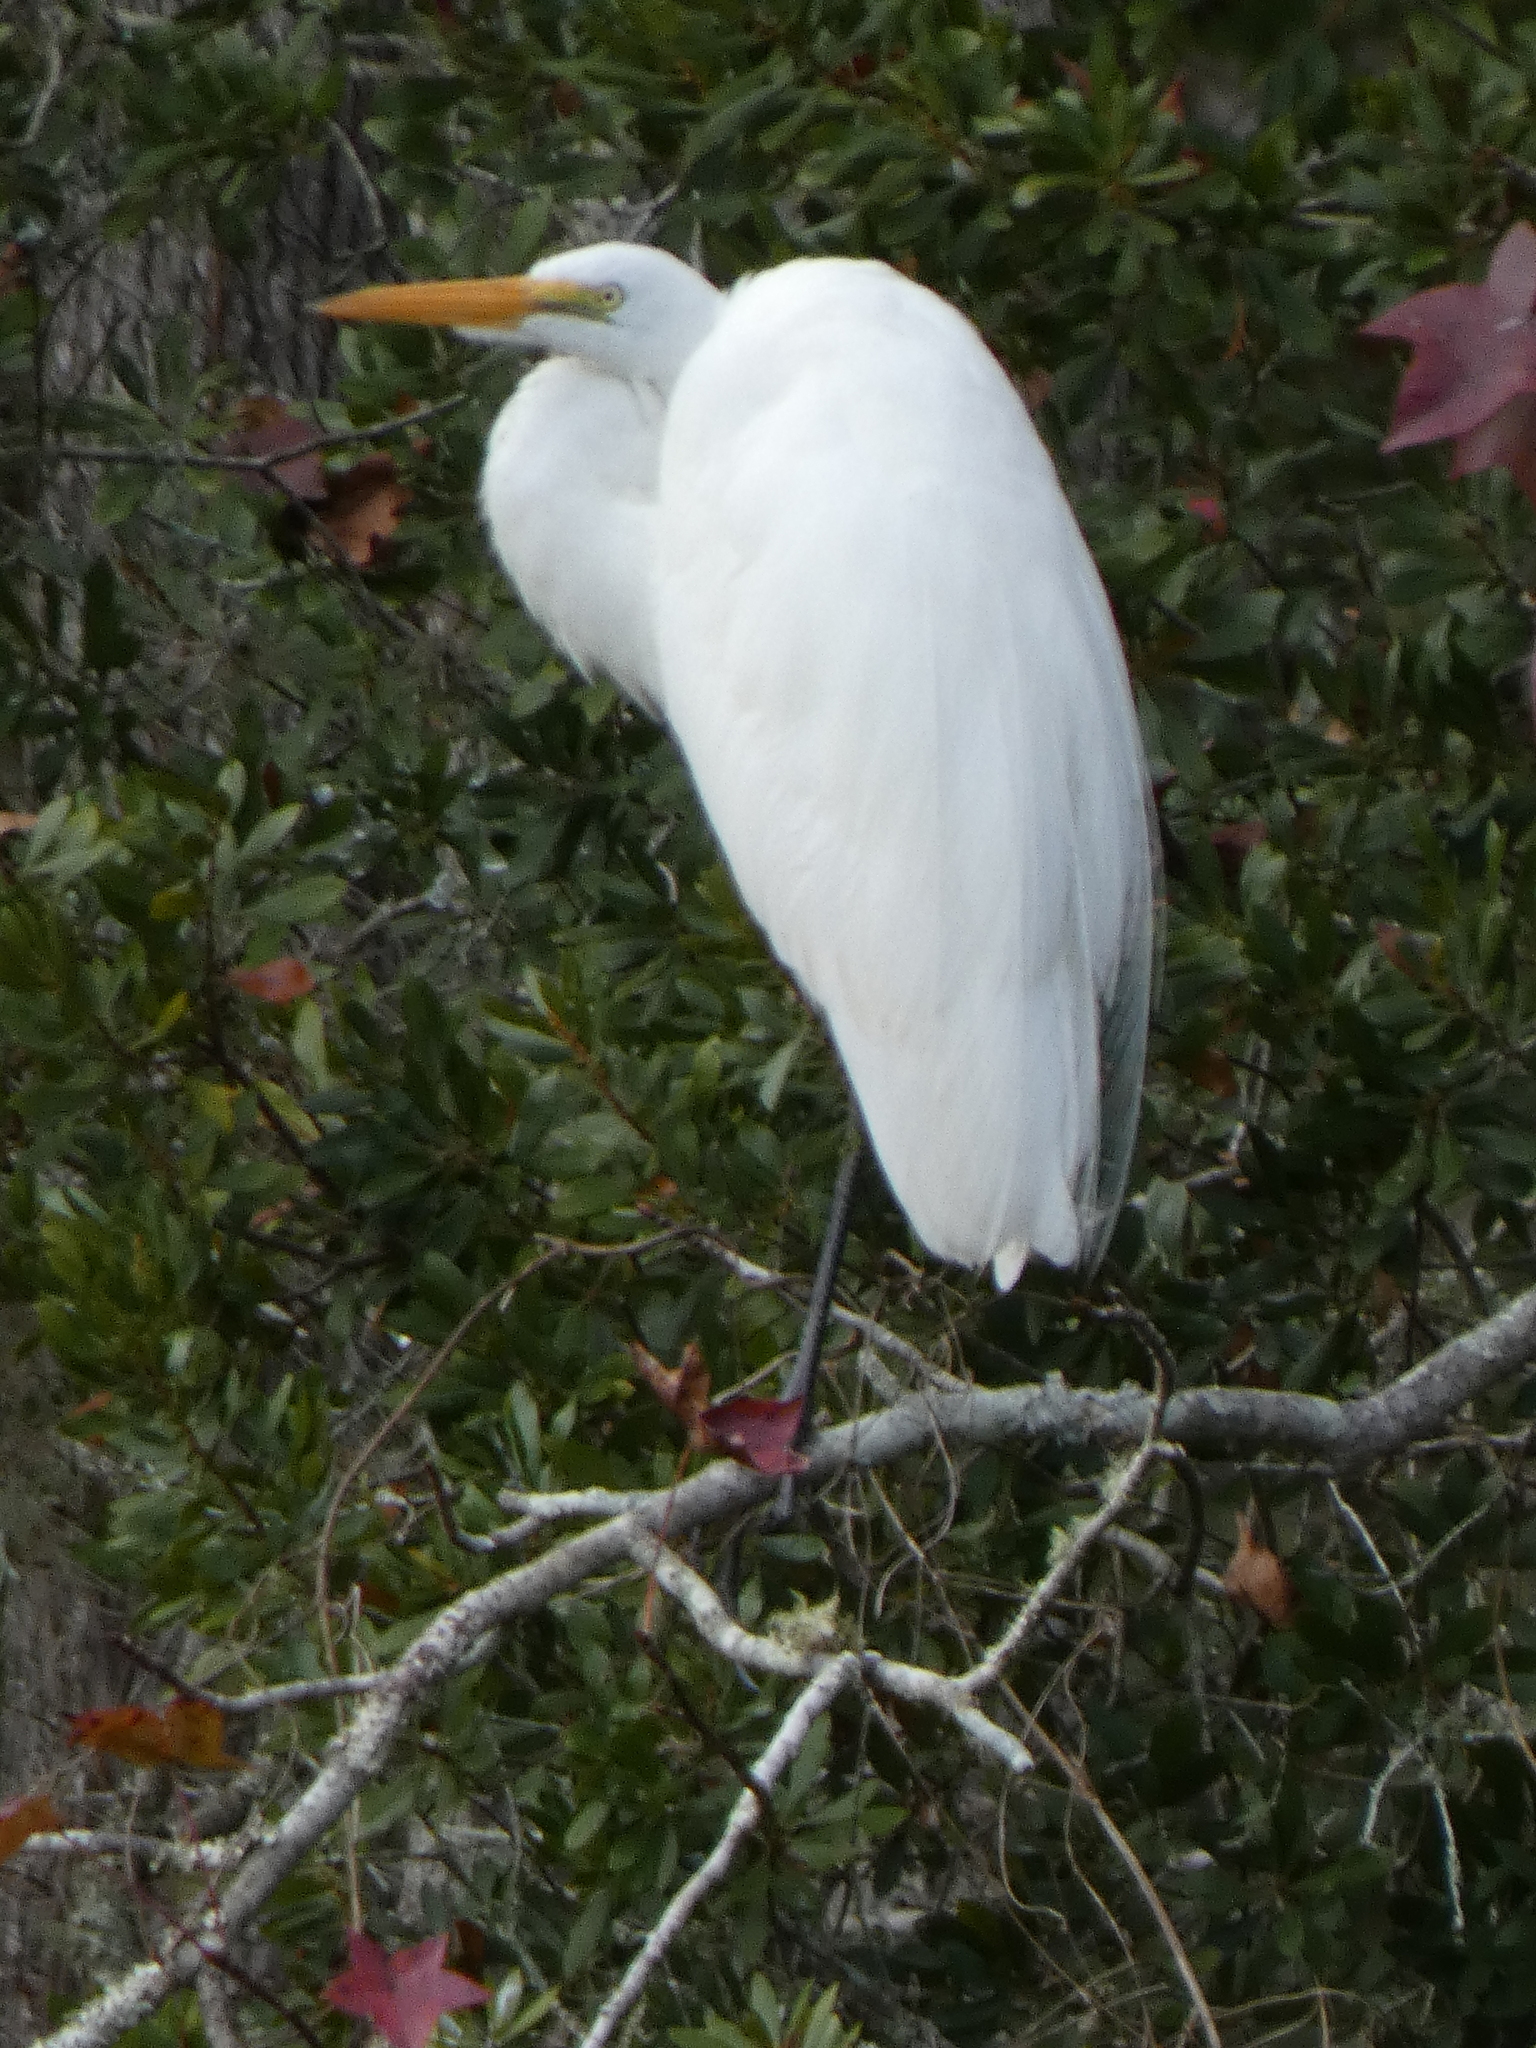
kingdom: Animalia
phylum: Chordata
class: Aves
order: Pelecaniformes
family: Ardeidae
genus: Ardea
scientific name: Ardea alba
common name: Great egret
